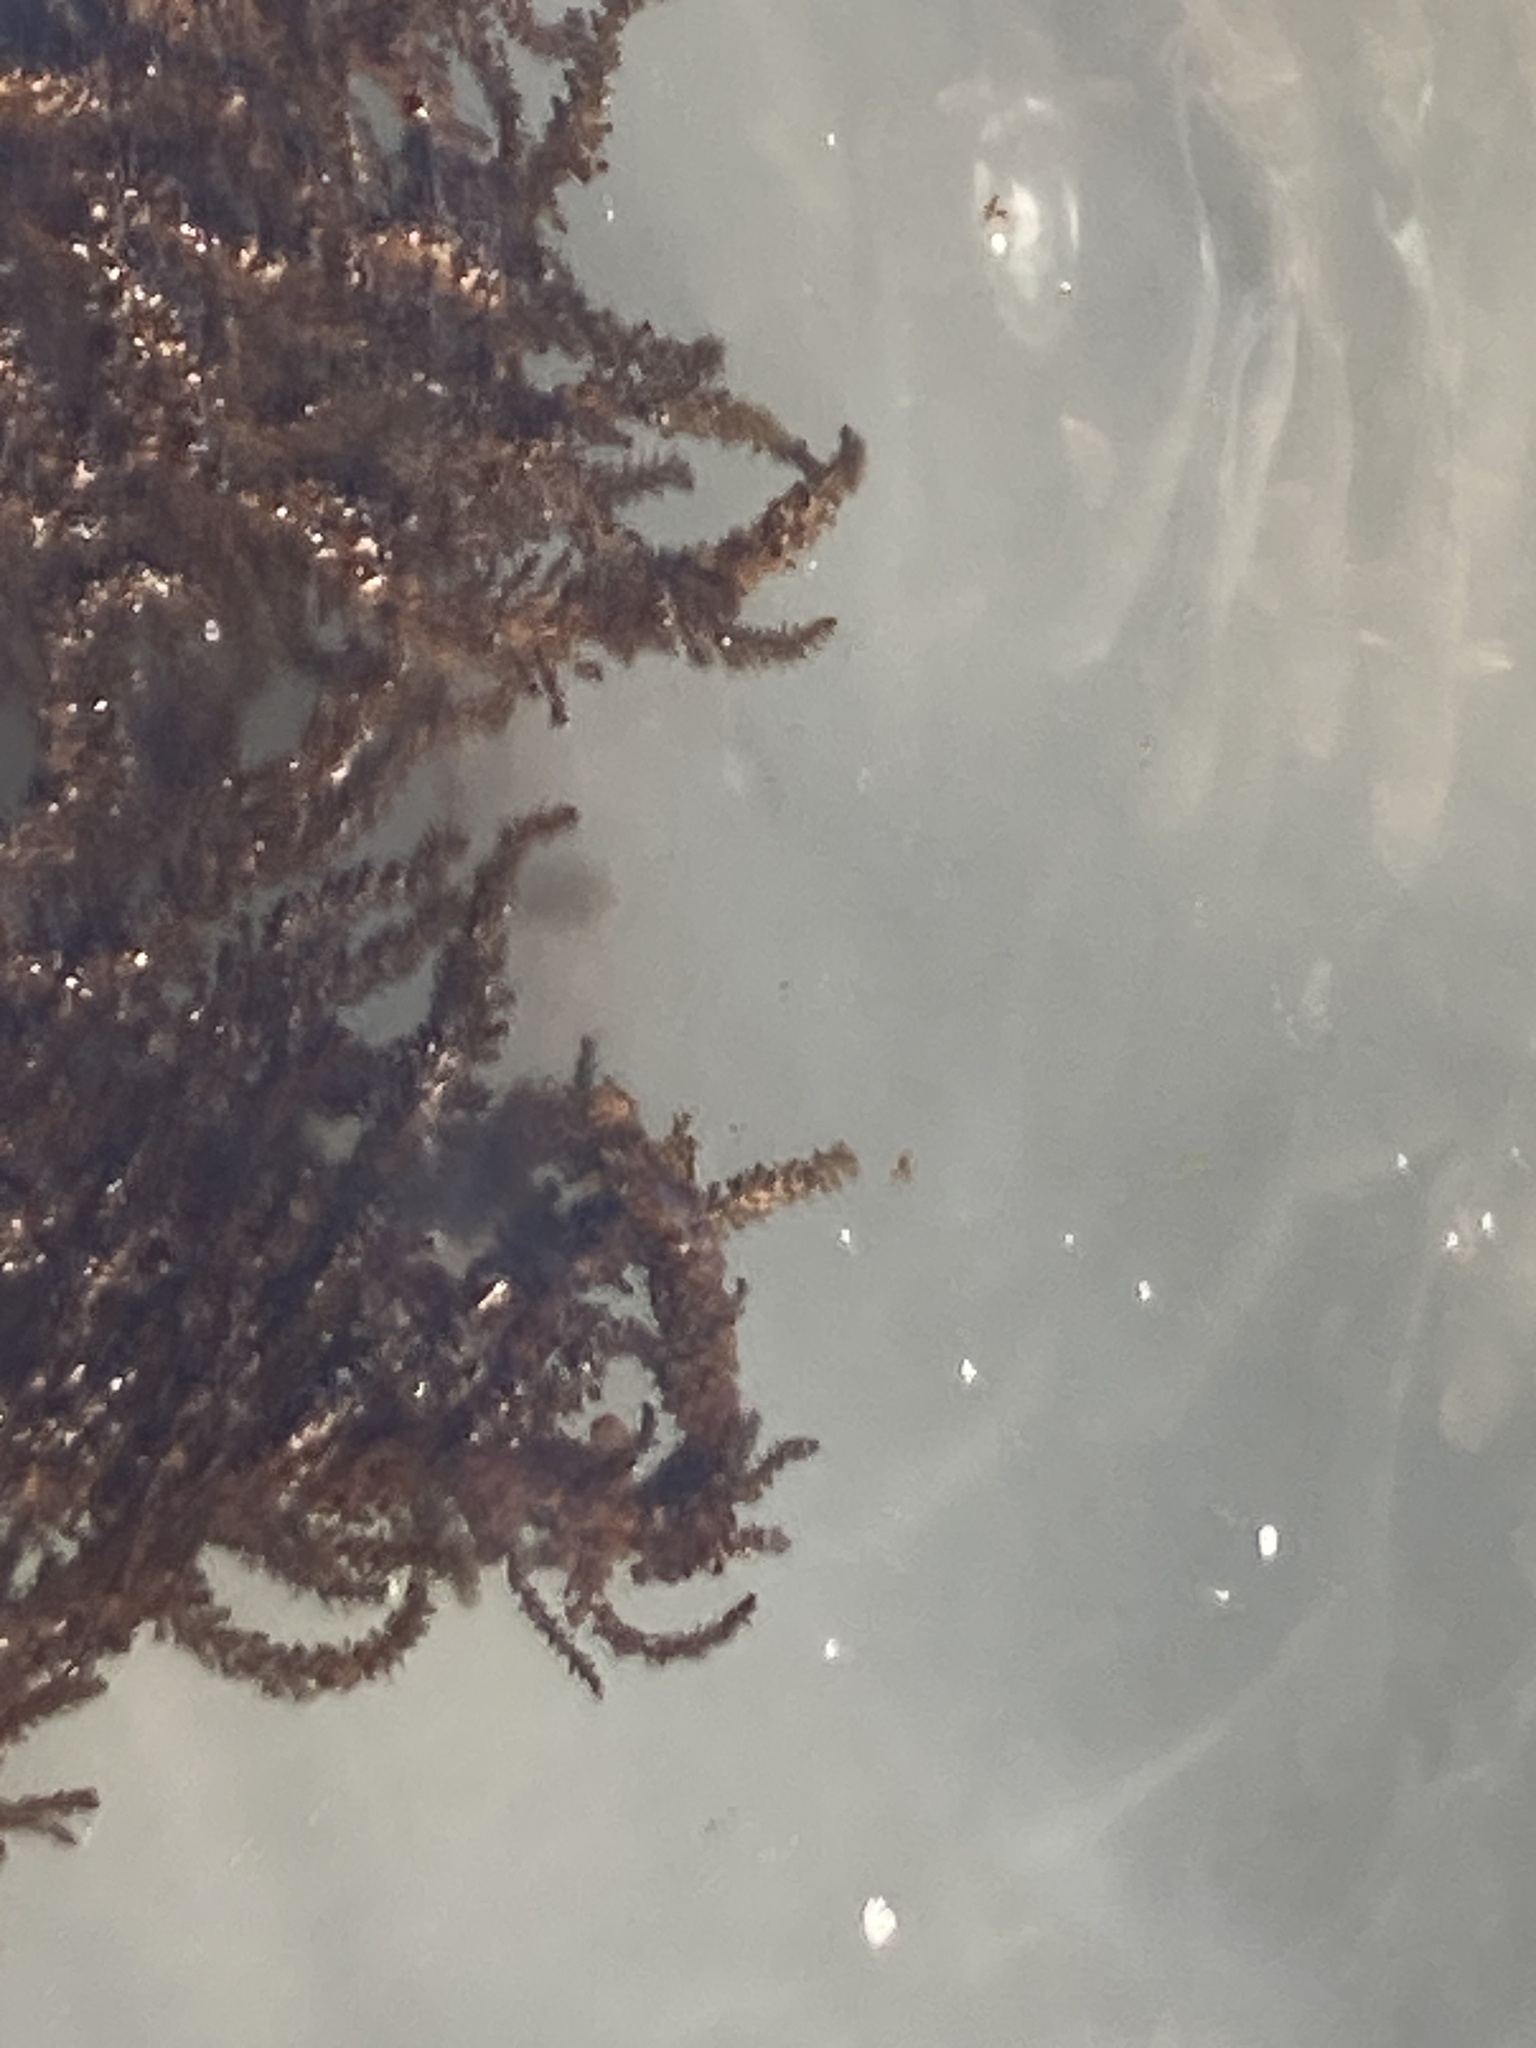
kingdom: Chromista
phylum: Ochrophyta
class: Phaeophyceae
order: Fucales
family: Sargassaceae
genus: Sargassum
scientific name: Sargassum muticum
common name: Japweed
